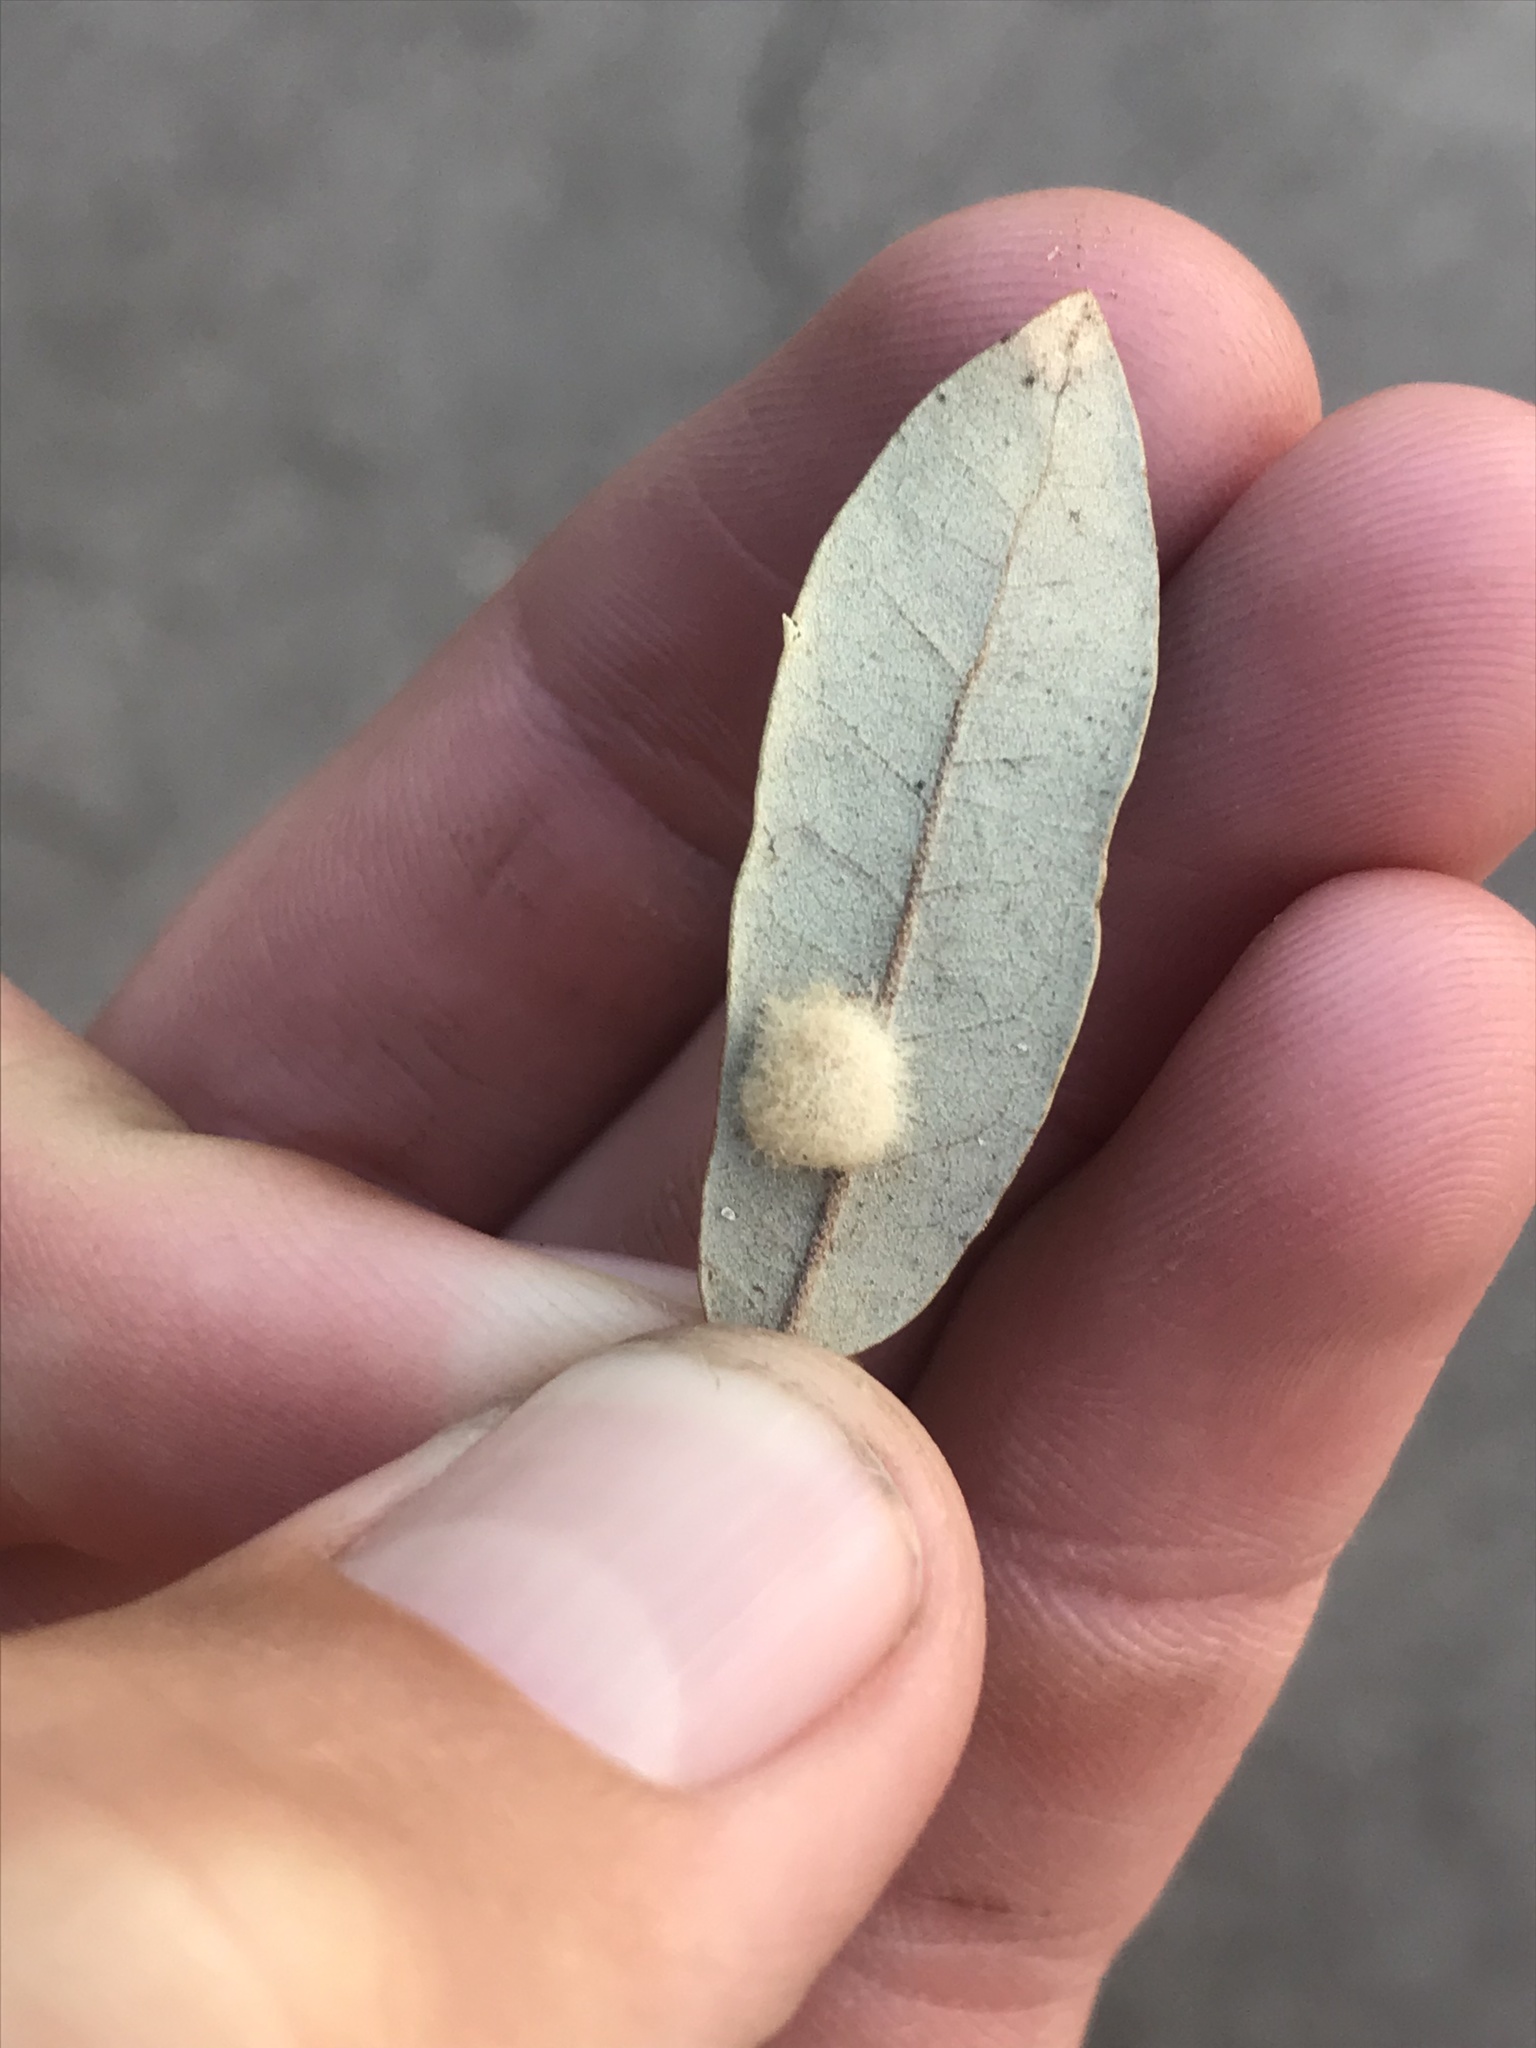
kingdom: Animalia
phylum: Arthropoda
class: Insecta
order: Hymenoptera
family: Cynipidae
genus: Andricus
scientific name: Andricus Druon quercuslanigerum
